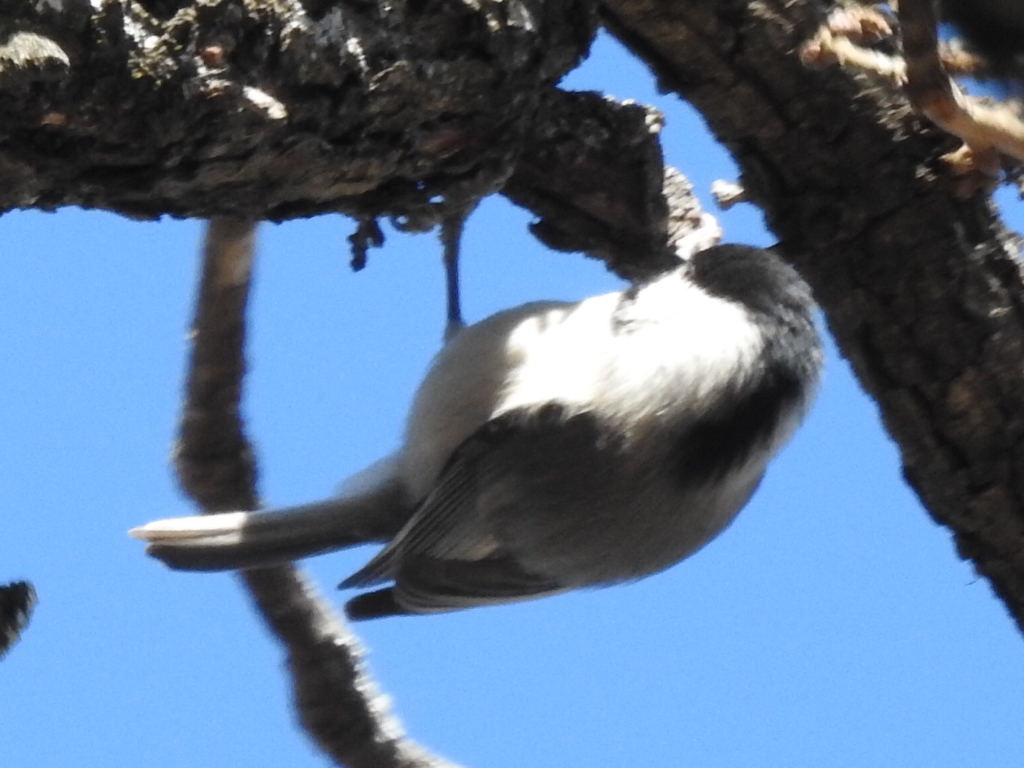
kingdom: Animalia
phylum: Chordata
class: Aves
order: Passeriformes
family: Paridae
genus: Poecile
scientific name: Poecile carolinensis
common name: Carolina chickadee
